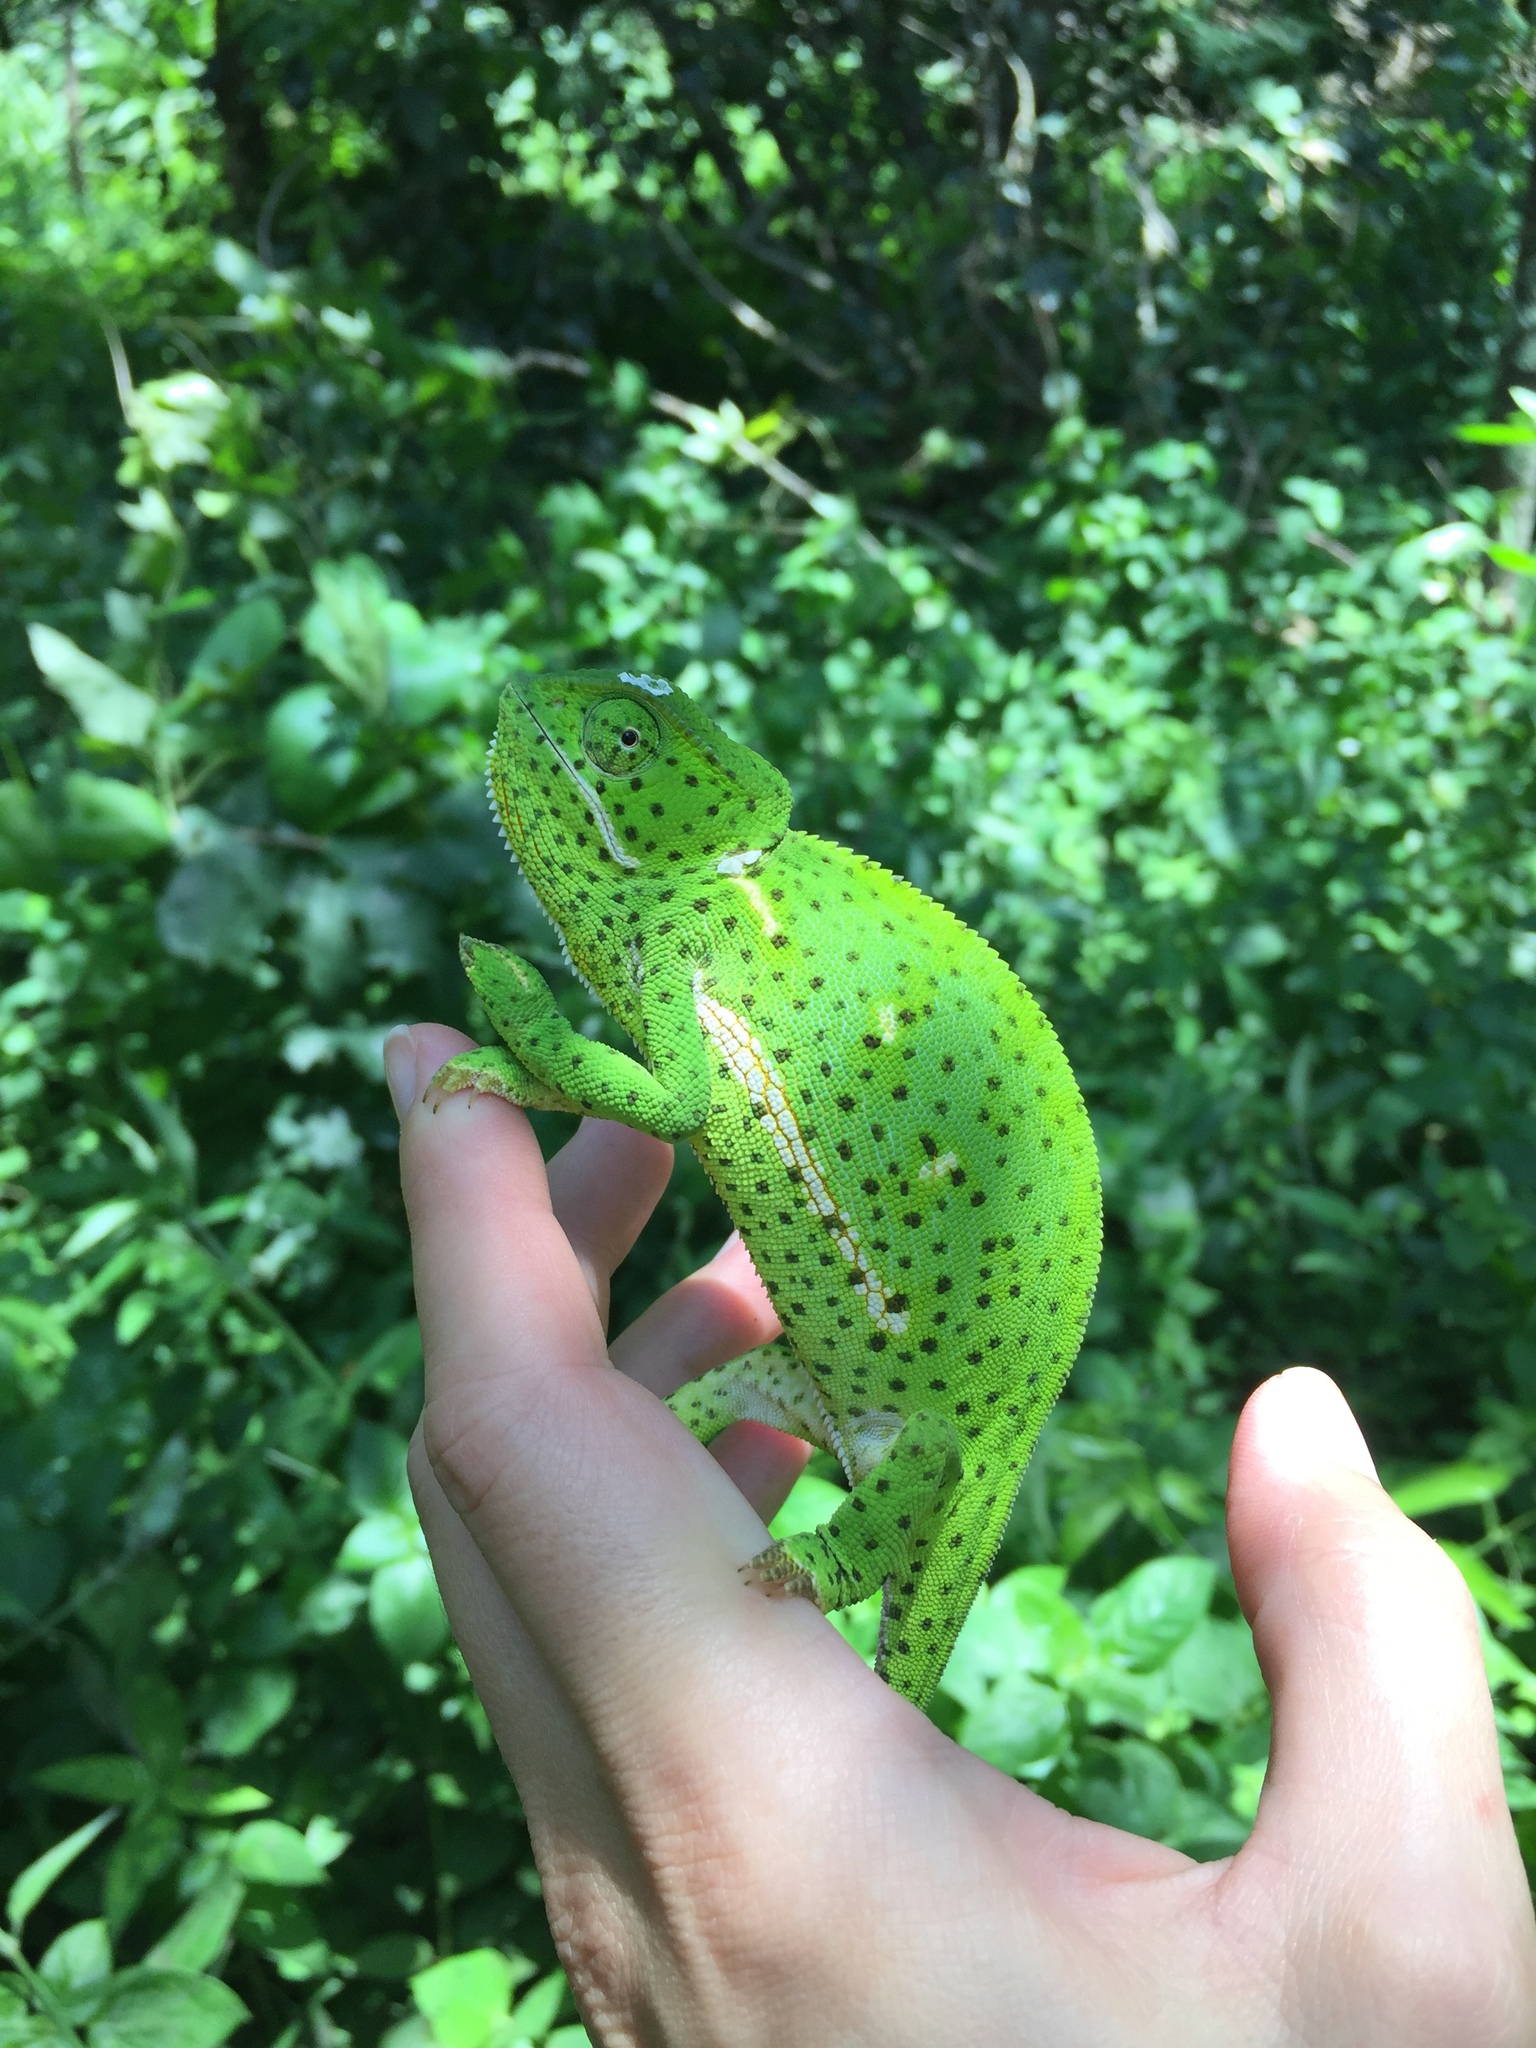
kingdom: Animalia
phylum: Chordata
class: Squamata
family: Chamaeleonidae
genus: Chamaeleo
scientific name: Chamaeleo dilepis
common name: Flapneck chameleon
